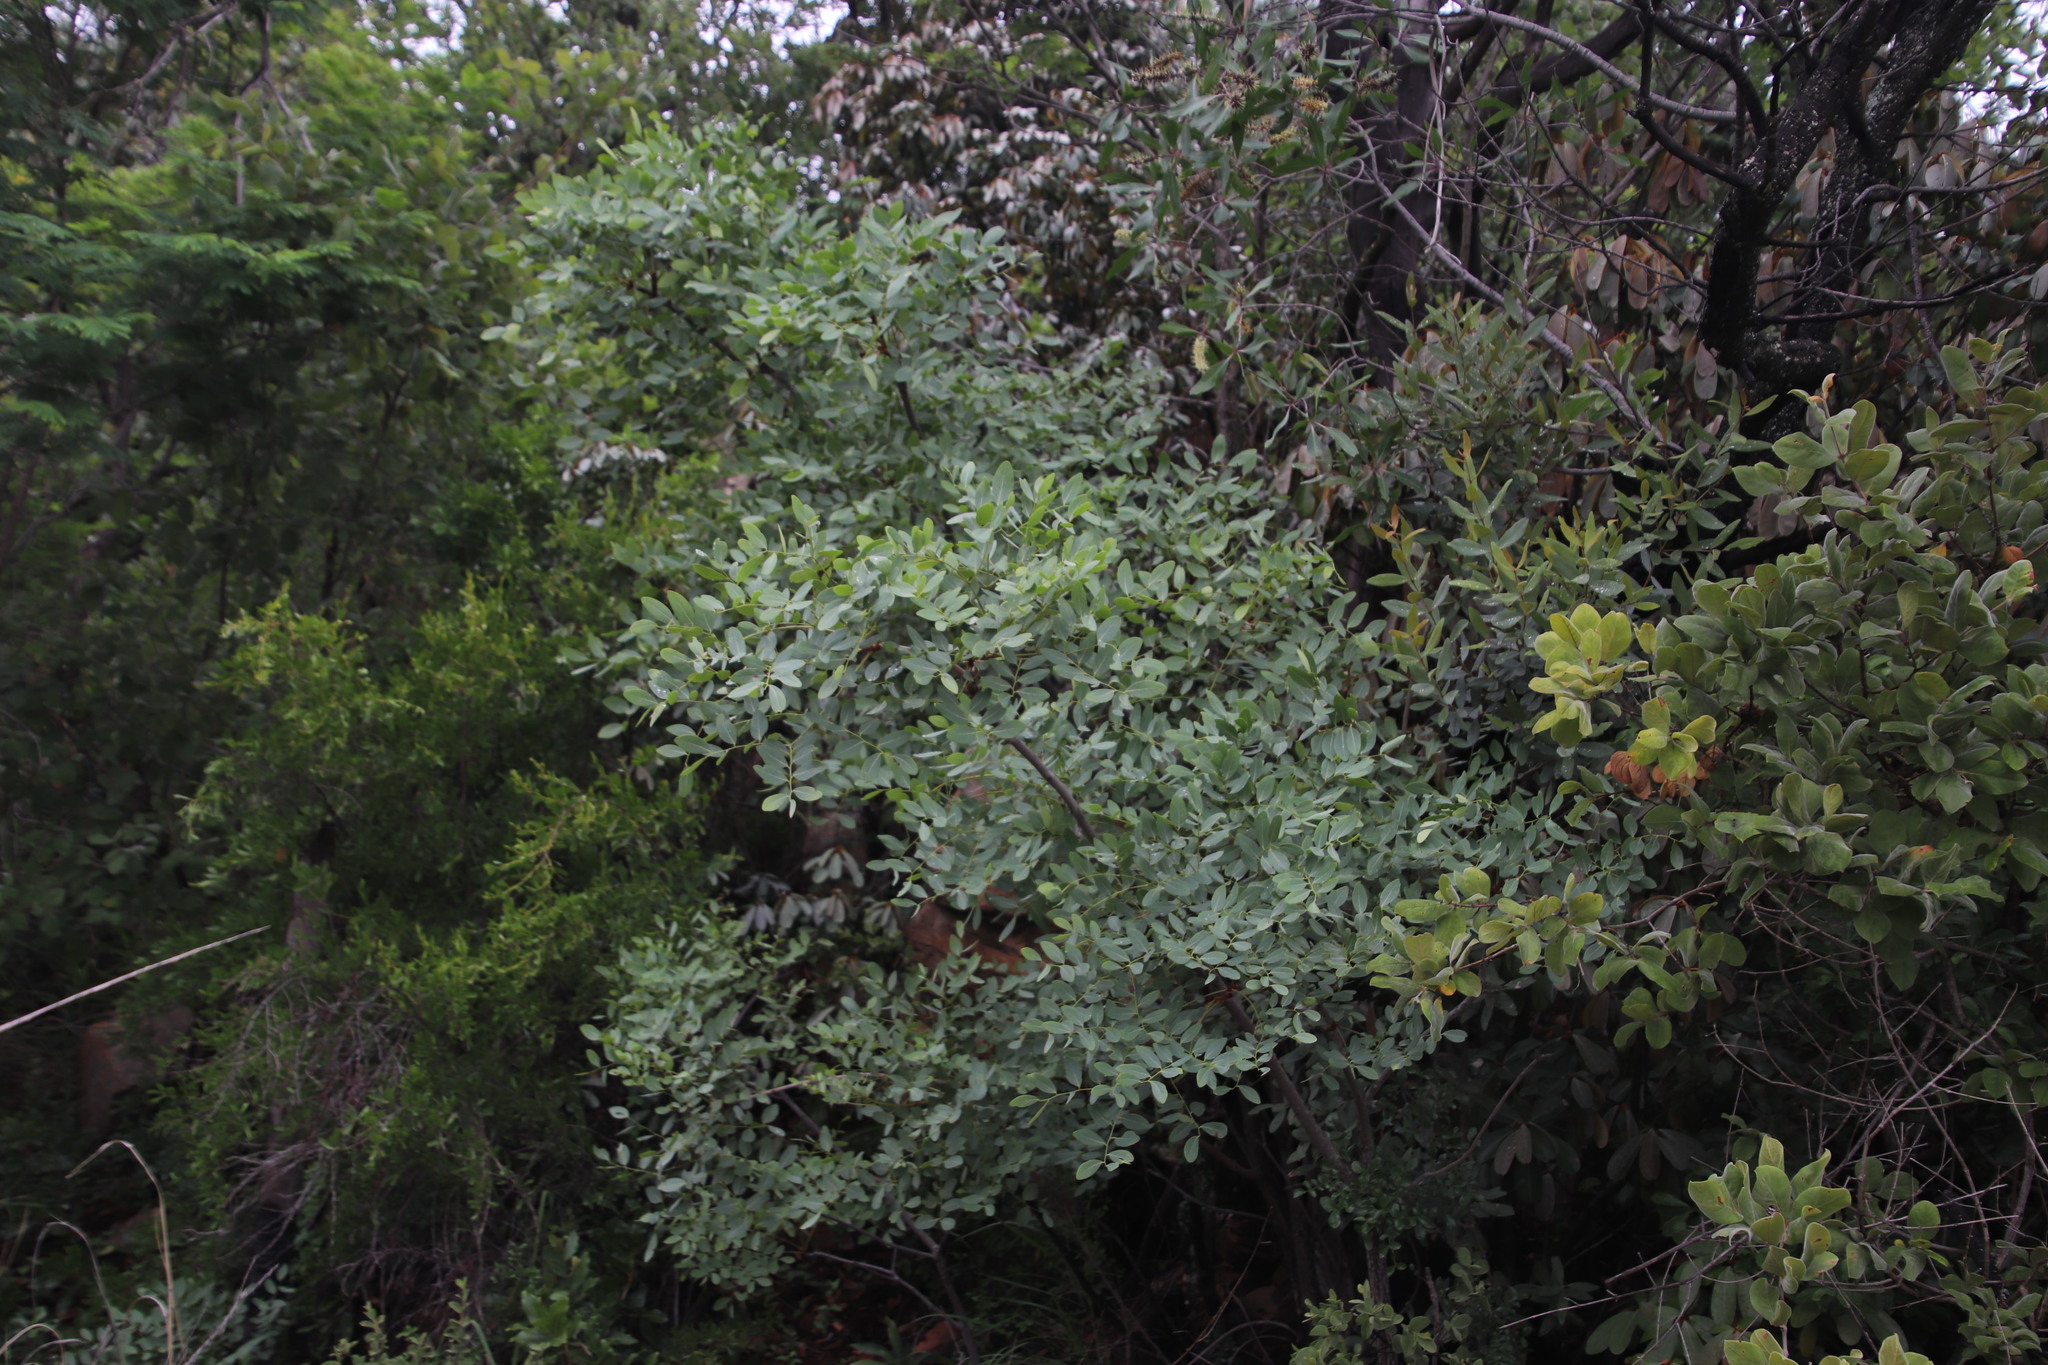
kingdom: Plantae
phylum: Tracheophyta
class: Magnoliopsida
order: Fabales
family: Fabaceae
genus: Burkea
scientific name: Burkea africana
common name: Mkalati tree
